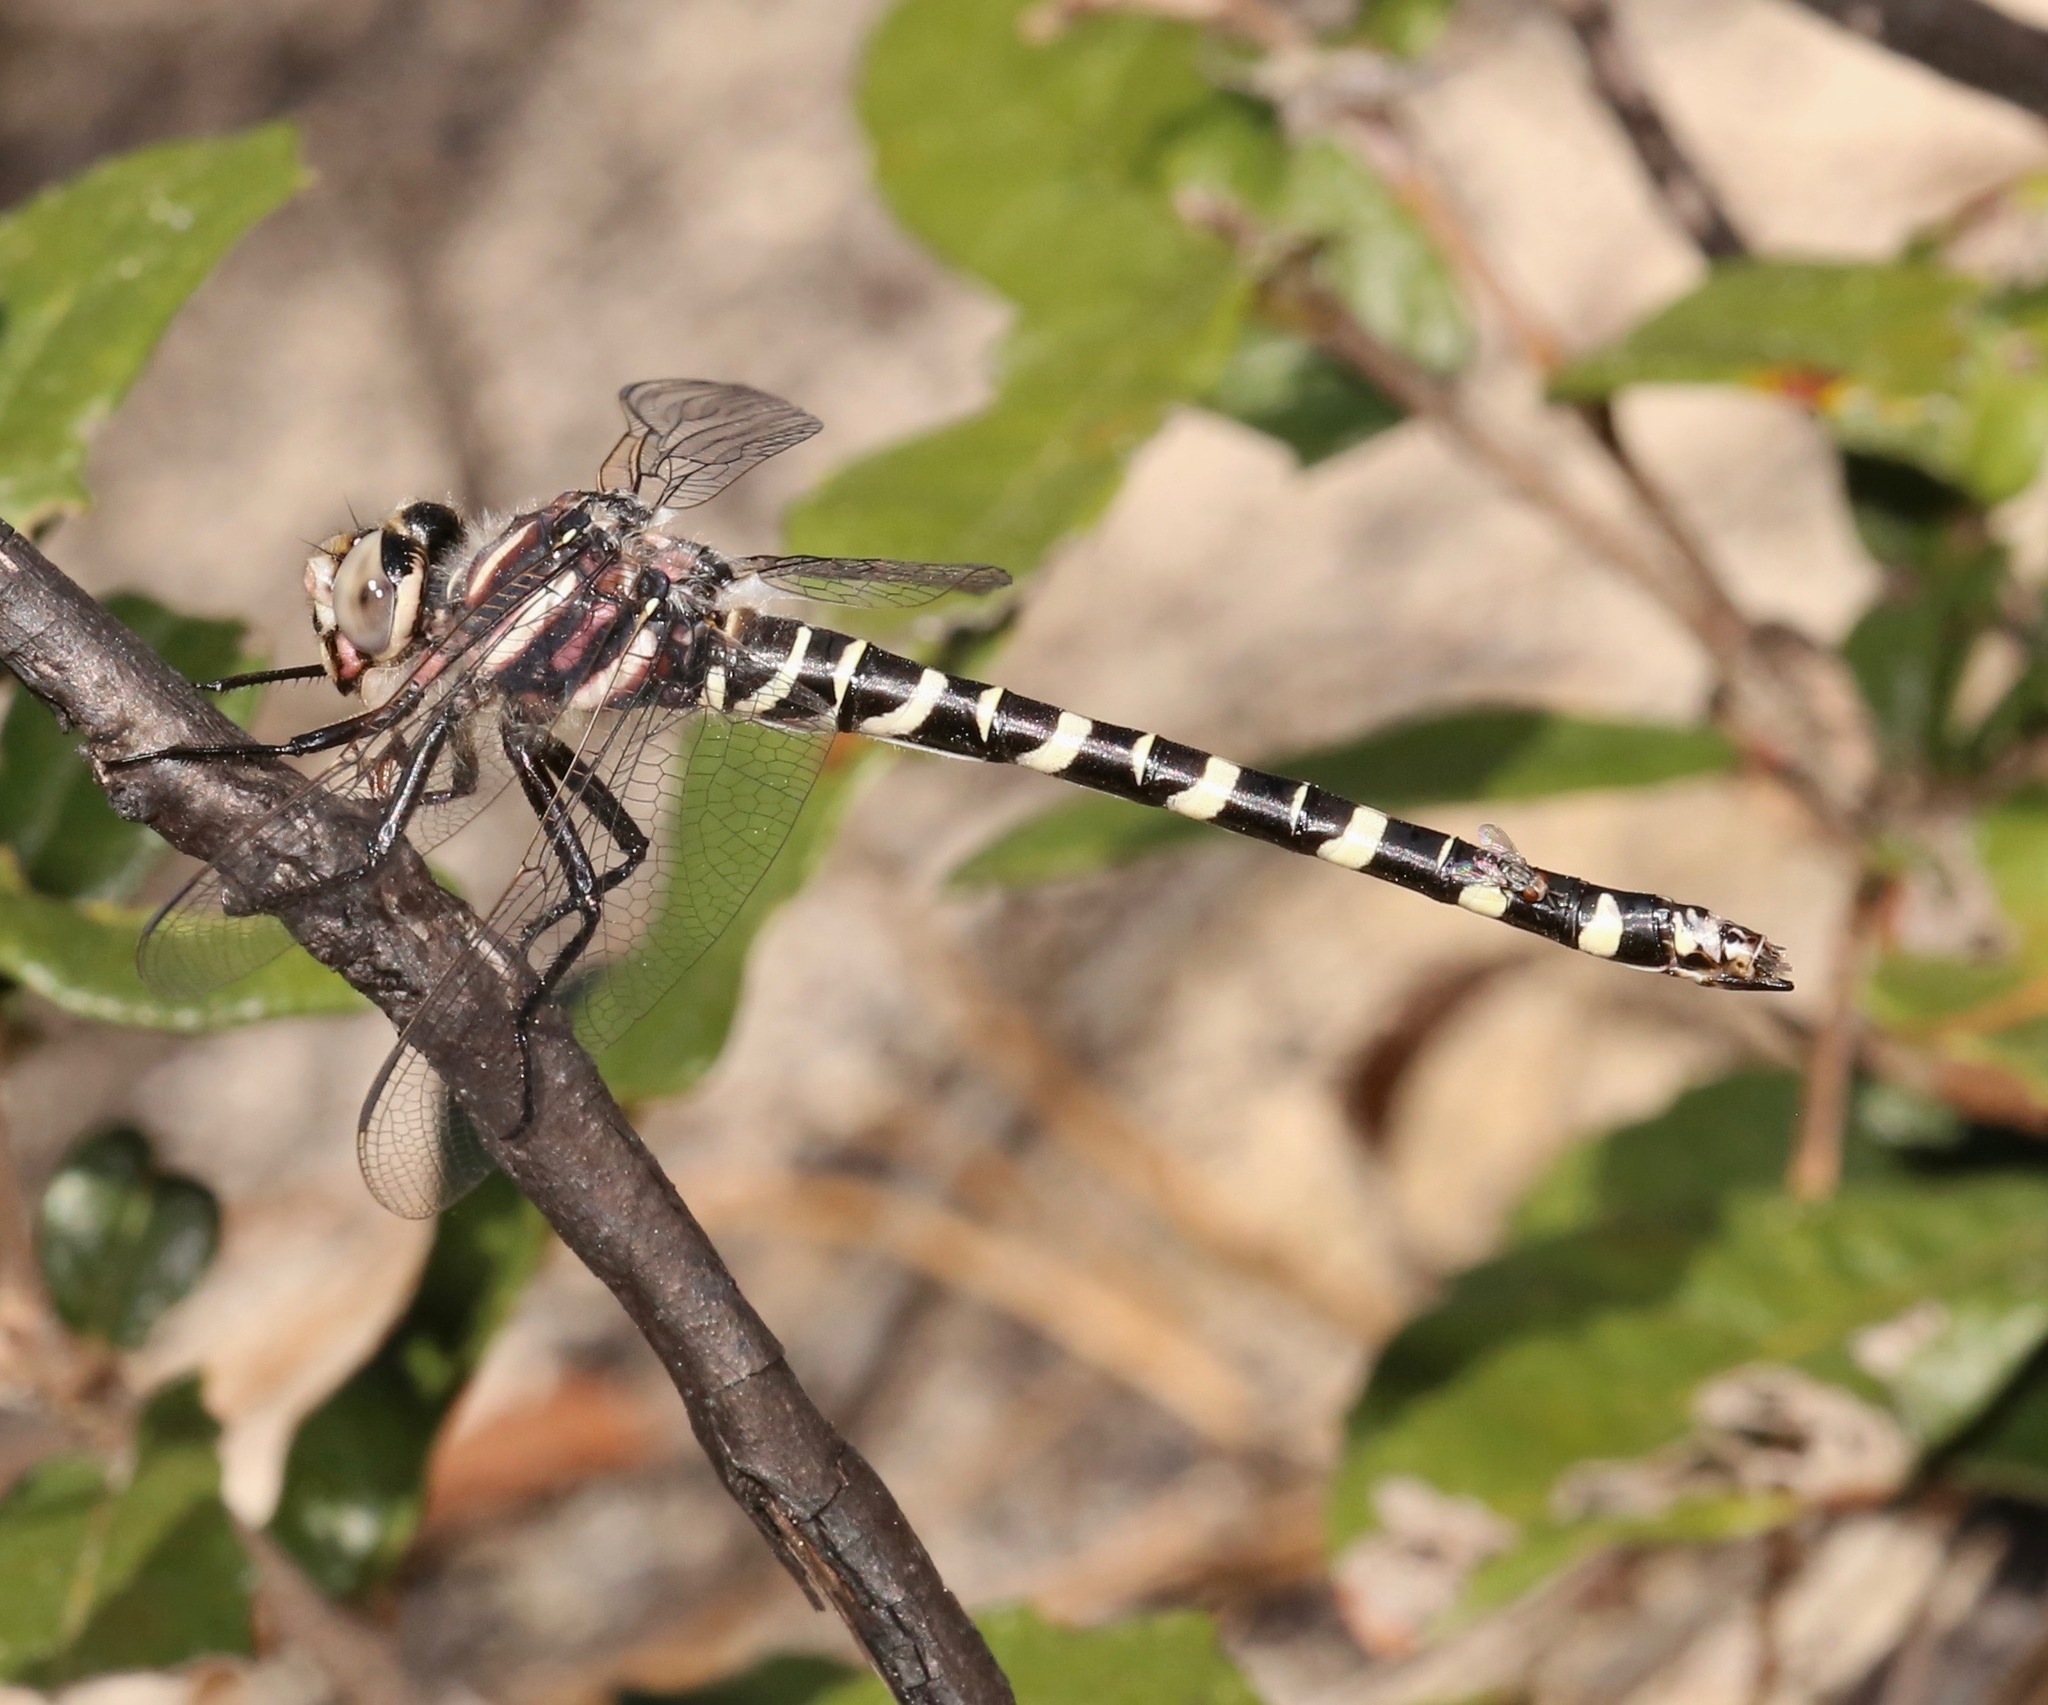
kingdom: Animalia
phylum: Arthropoda
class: Insecta
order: Odonata
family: Cordulegastridae
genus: Cordulegaster
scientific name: Cordulegaster sayi
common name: Say's spiketail
